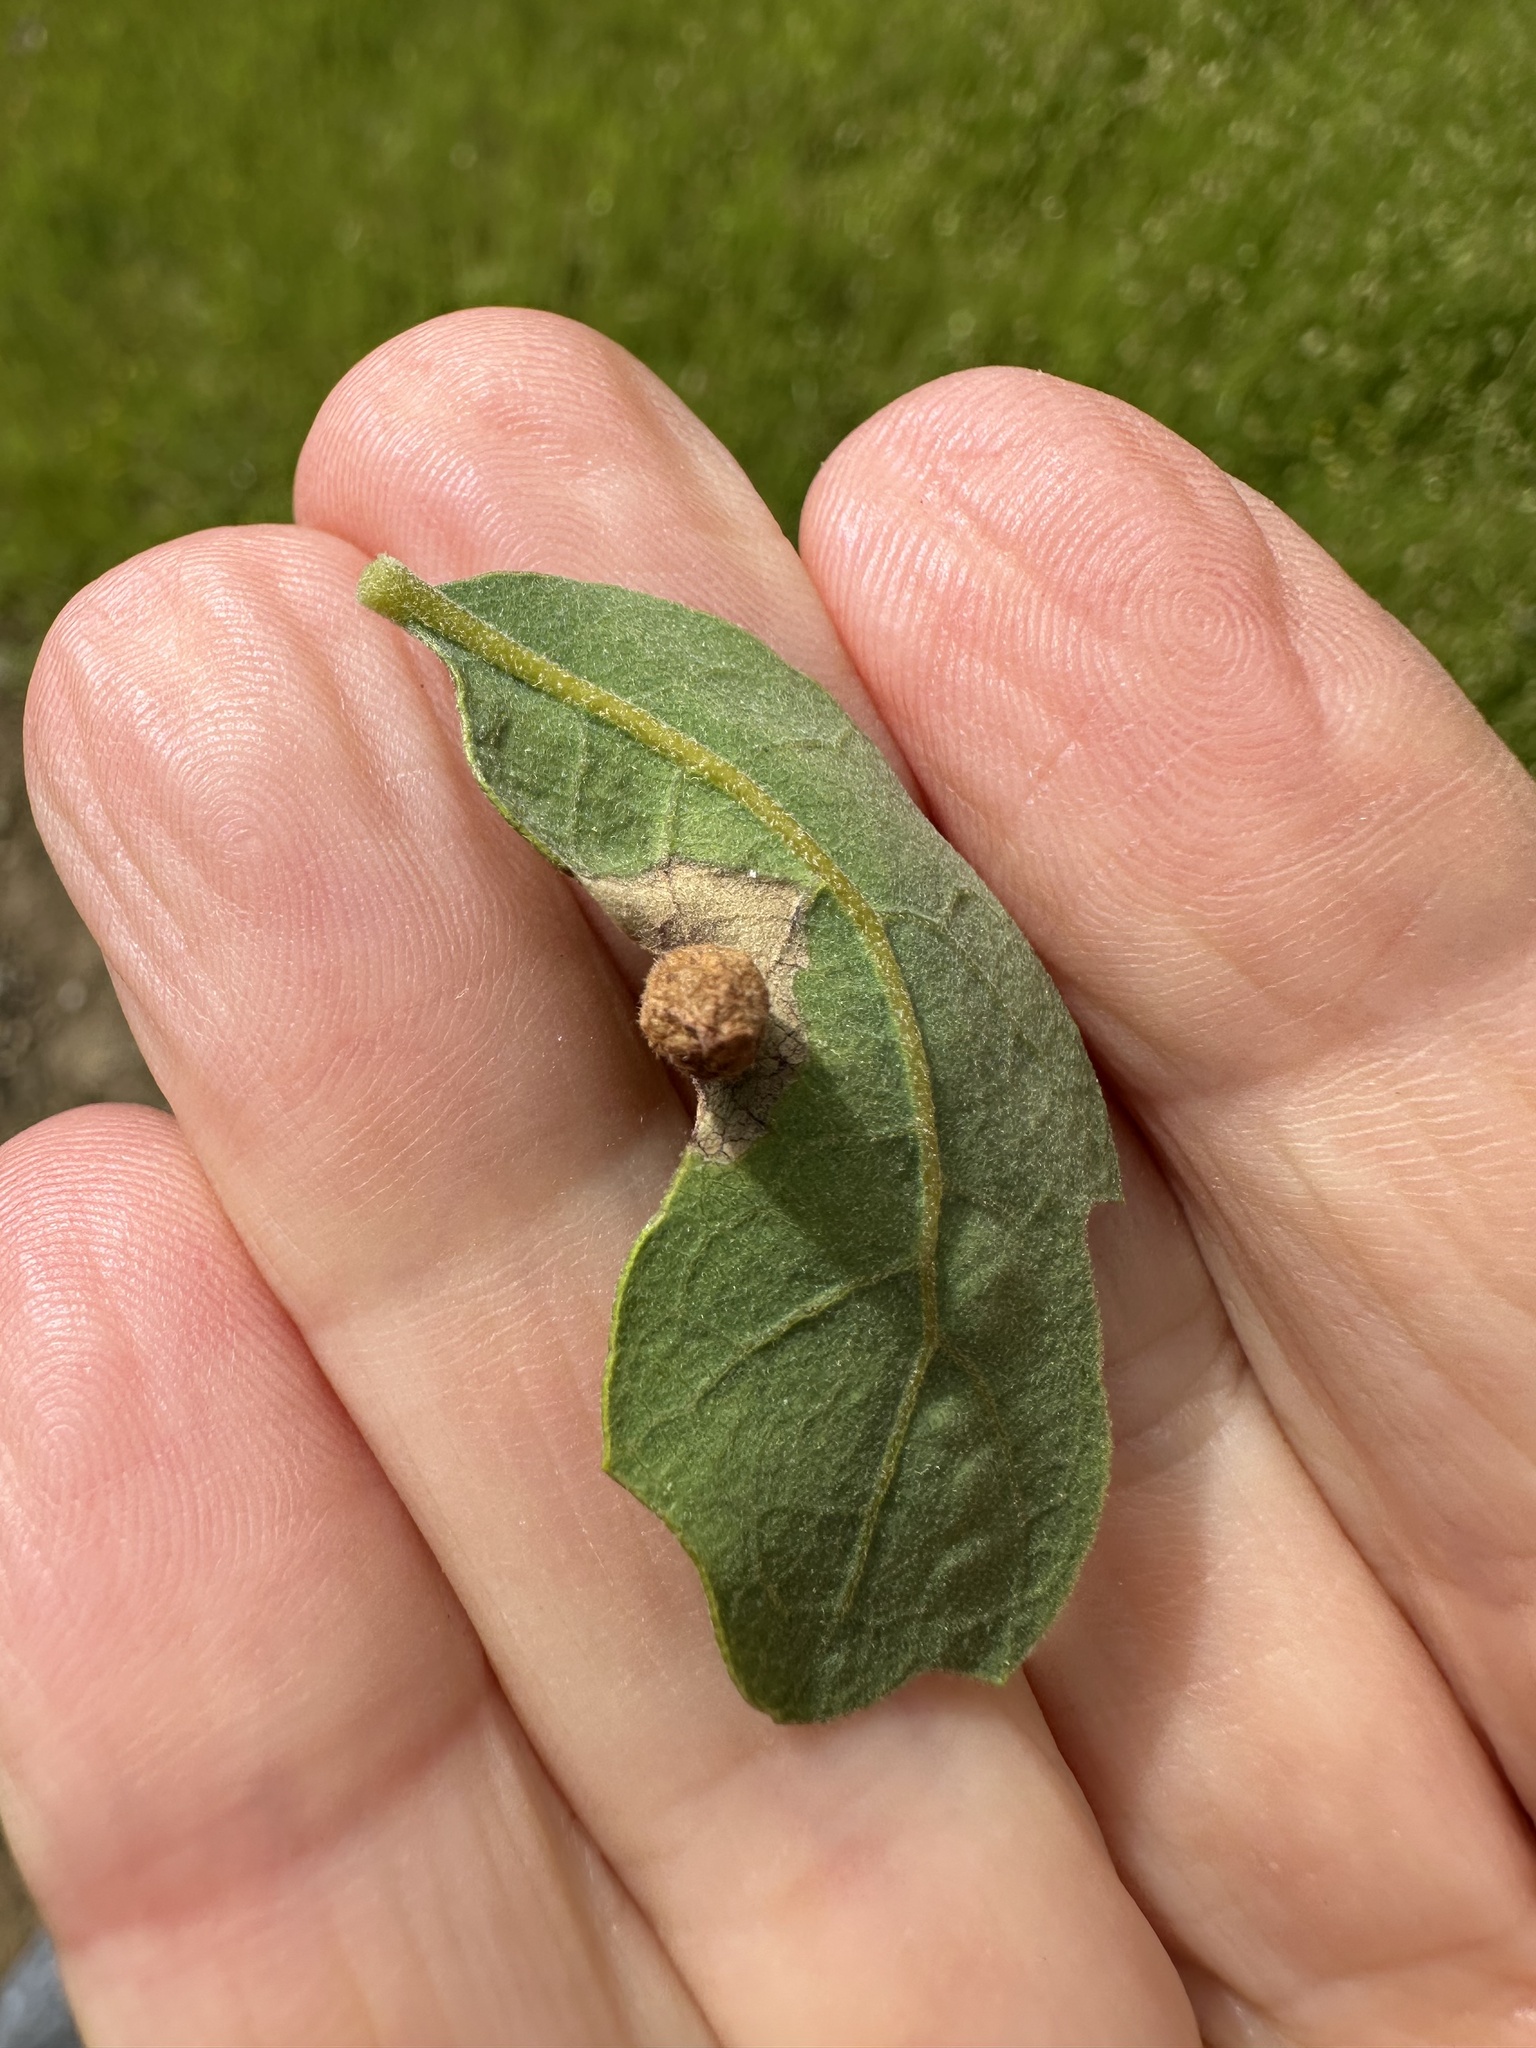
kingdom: Animalia
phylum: Arthropoda
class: Insecta
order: Hymenoptera
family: Cynipidae
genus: Andricus
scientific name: Andricus
